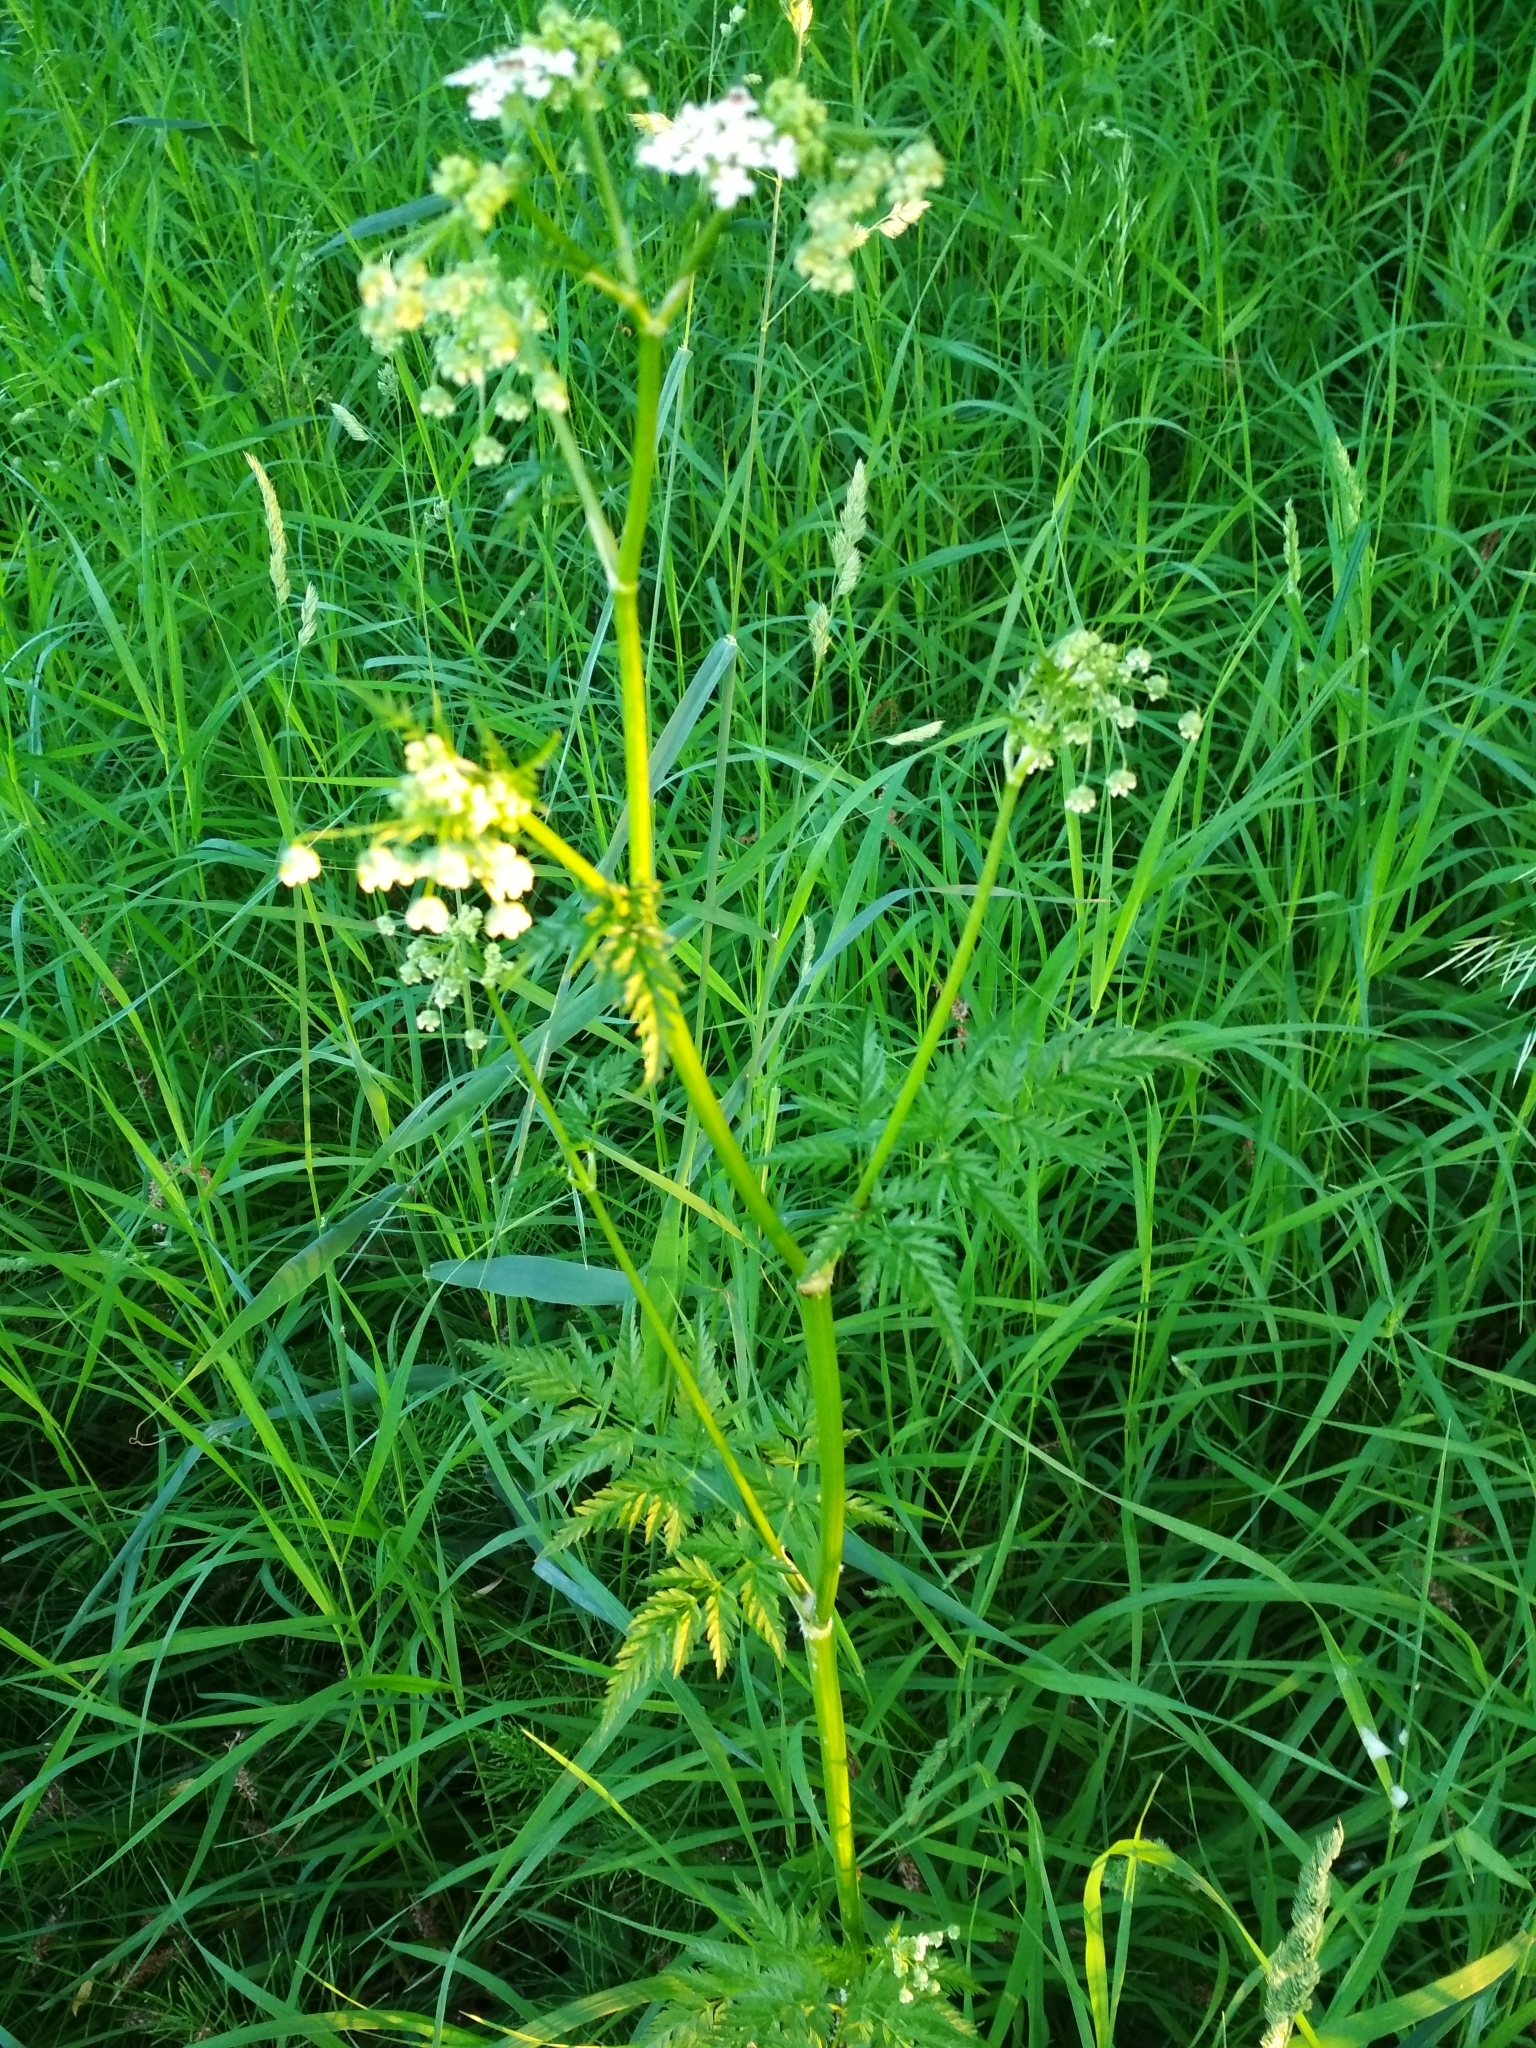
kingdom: Plantae
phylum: Tracheophyta
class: Magnoliopsida
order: Apiales
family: Apiaceae
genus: Anthriscus
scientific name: Anthriscus sylvestris
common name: Cow parsley
